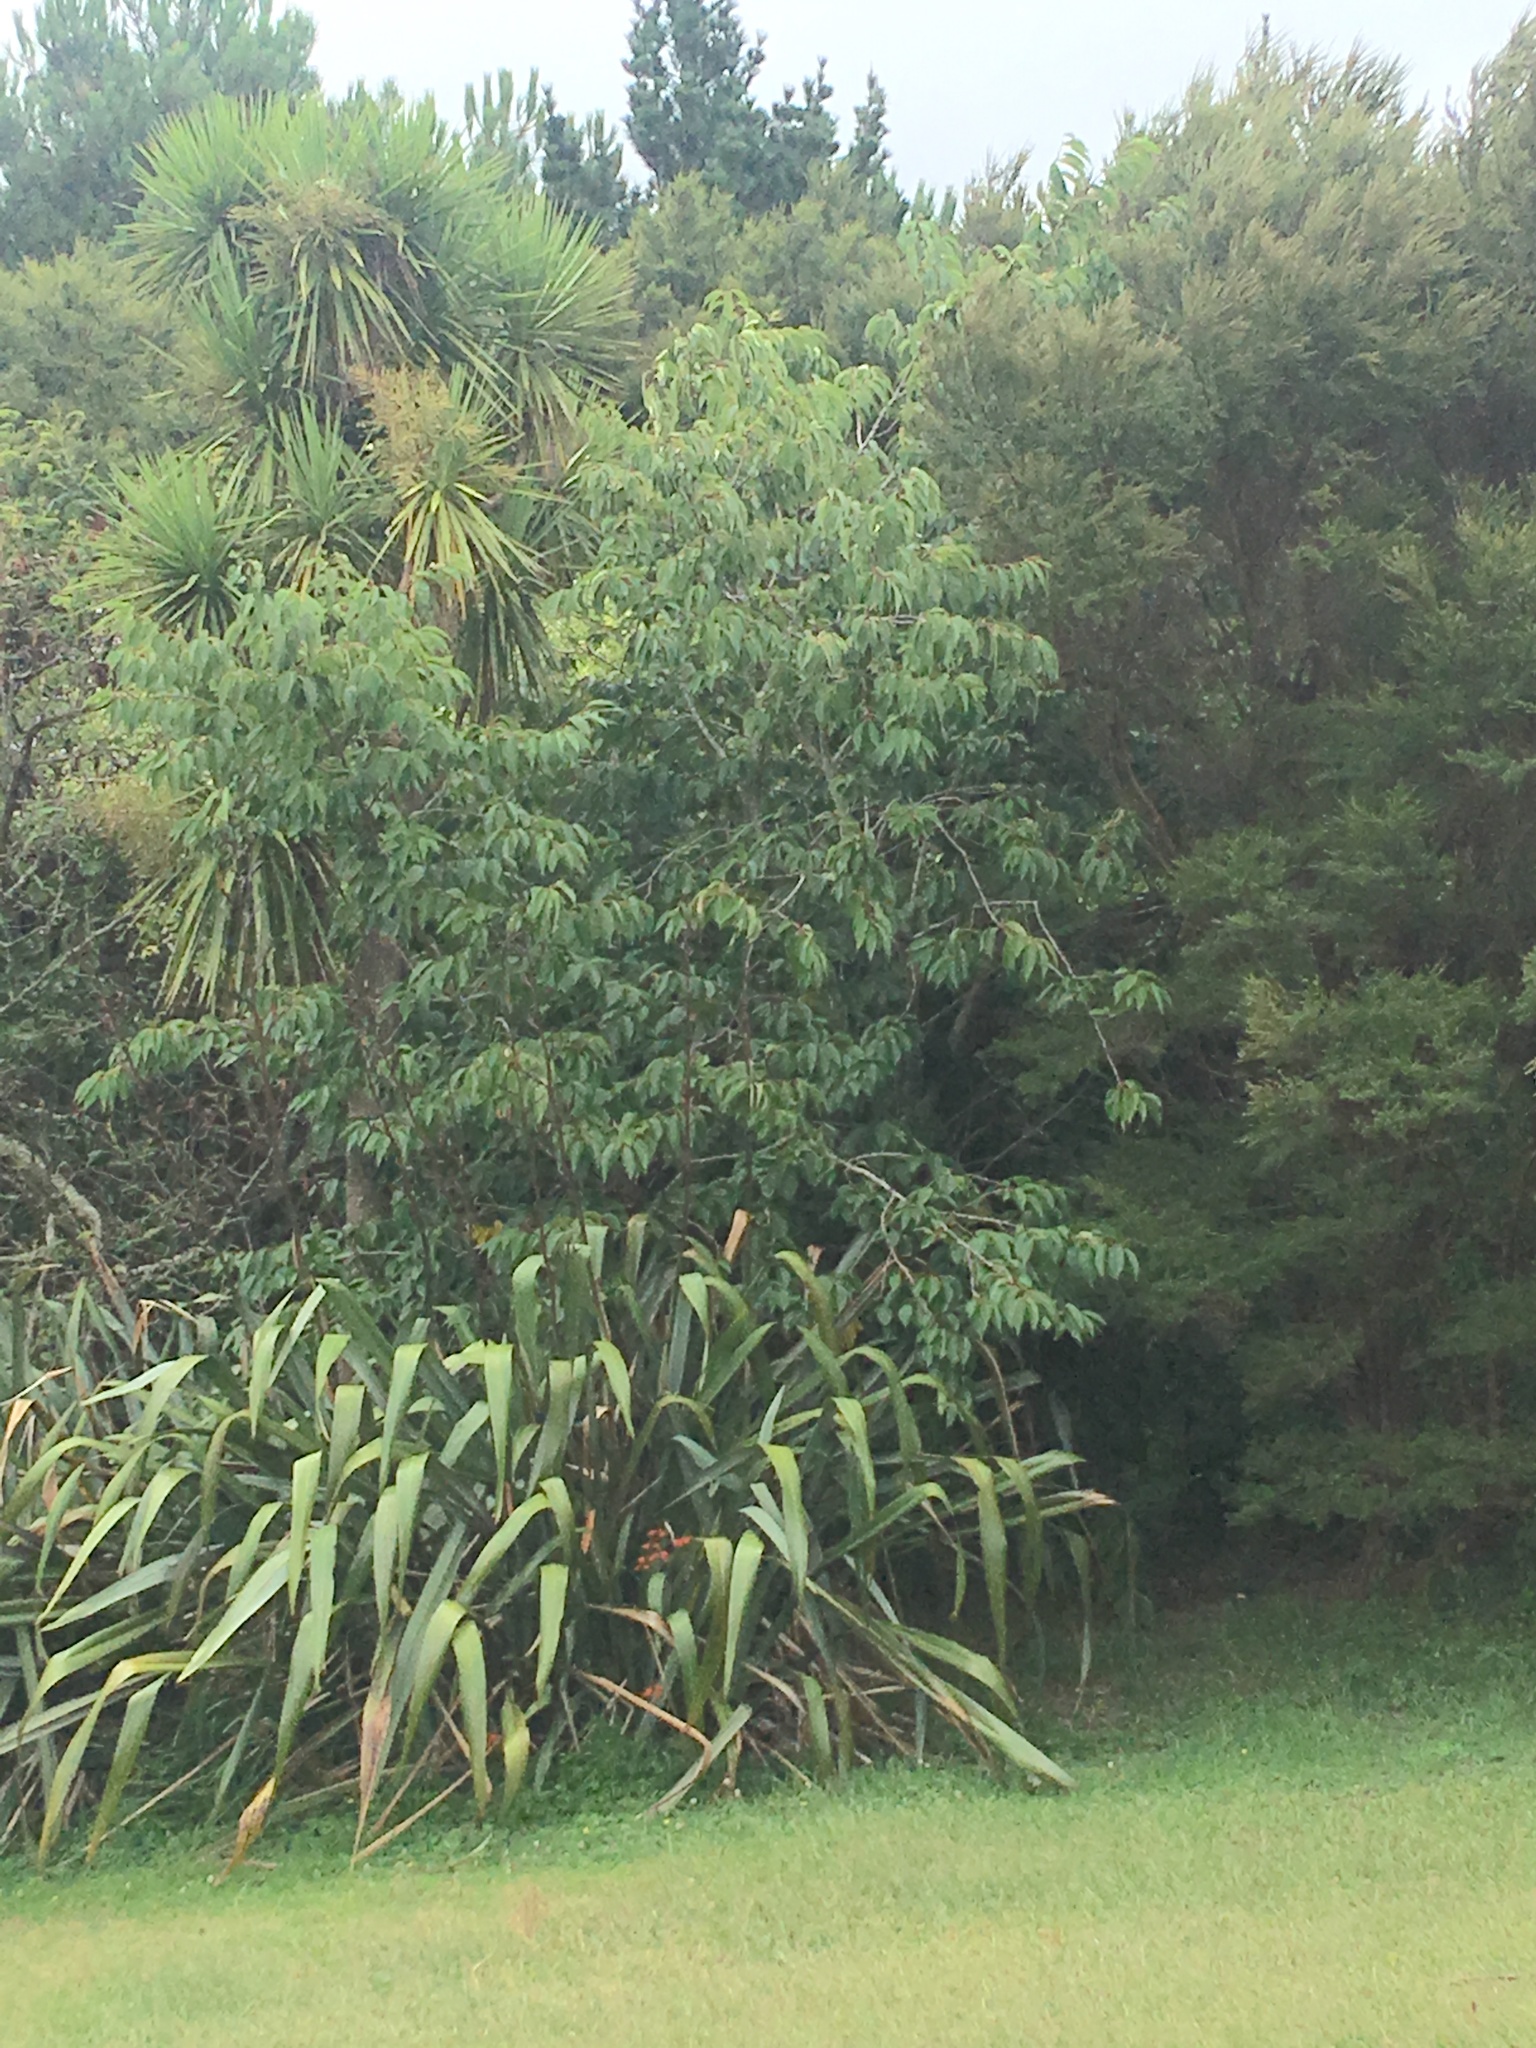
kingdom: Plantae
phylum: Tracheophyta
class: Magnoliopsida
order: Rosales
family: Rosaceae
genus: Prunus
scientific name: Prunus serrulata
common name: Japanese cherry
